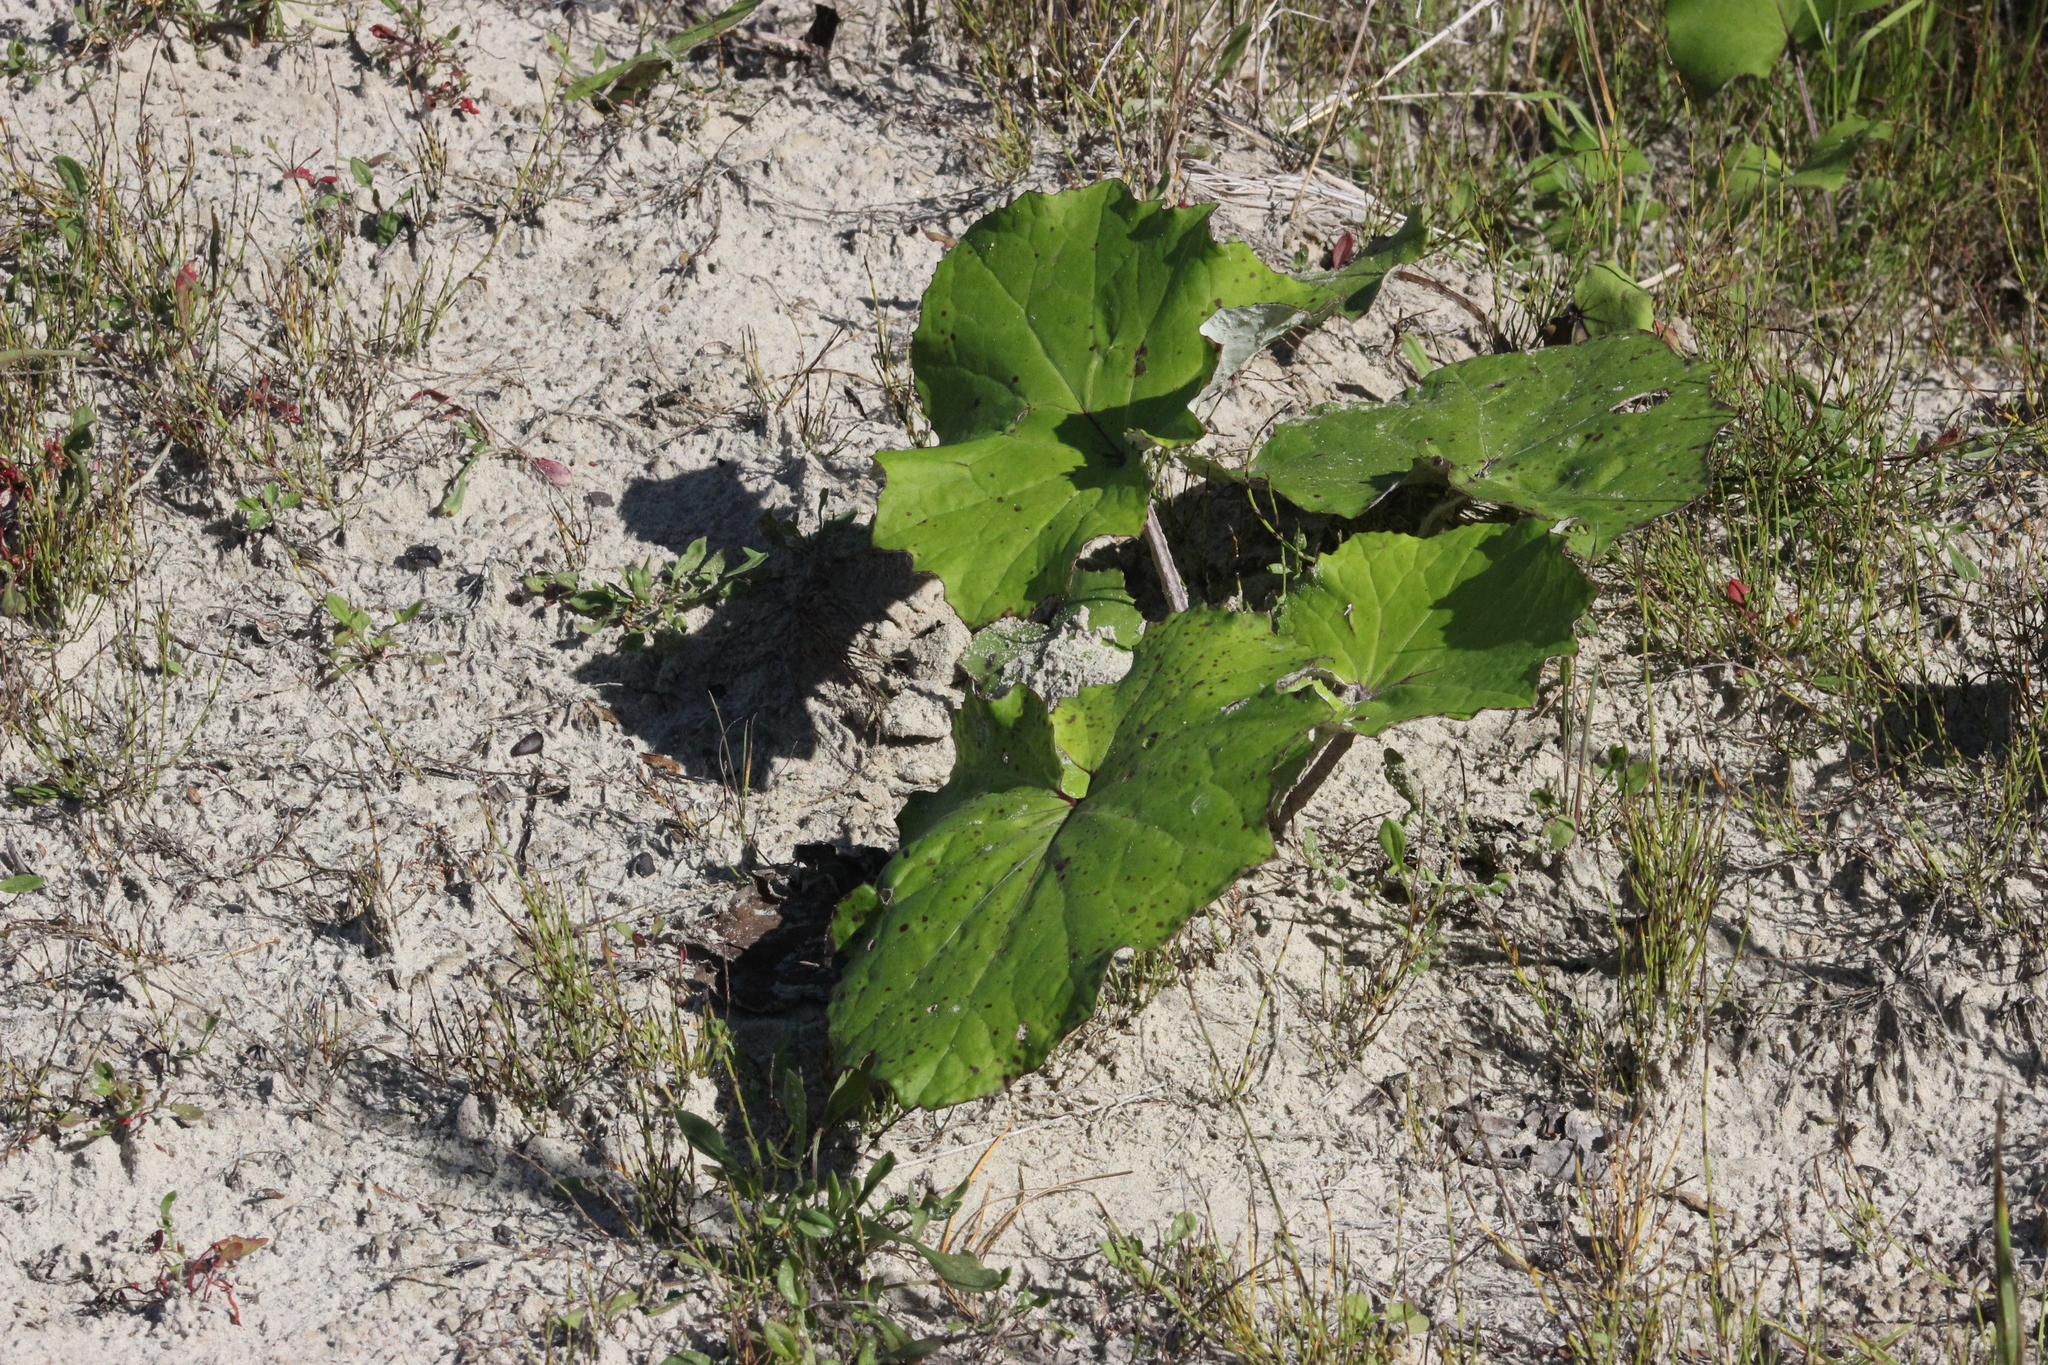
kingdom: Plantae
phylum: Tracheophyta
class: Magnoliopsida
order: Asterales
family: Asteraceae
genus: Tussilago
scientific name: Tussilago farfara
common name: Coltsfoot
